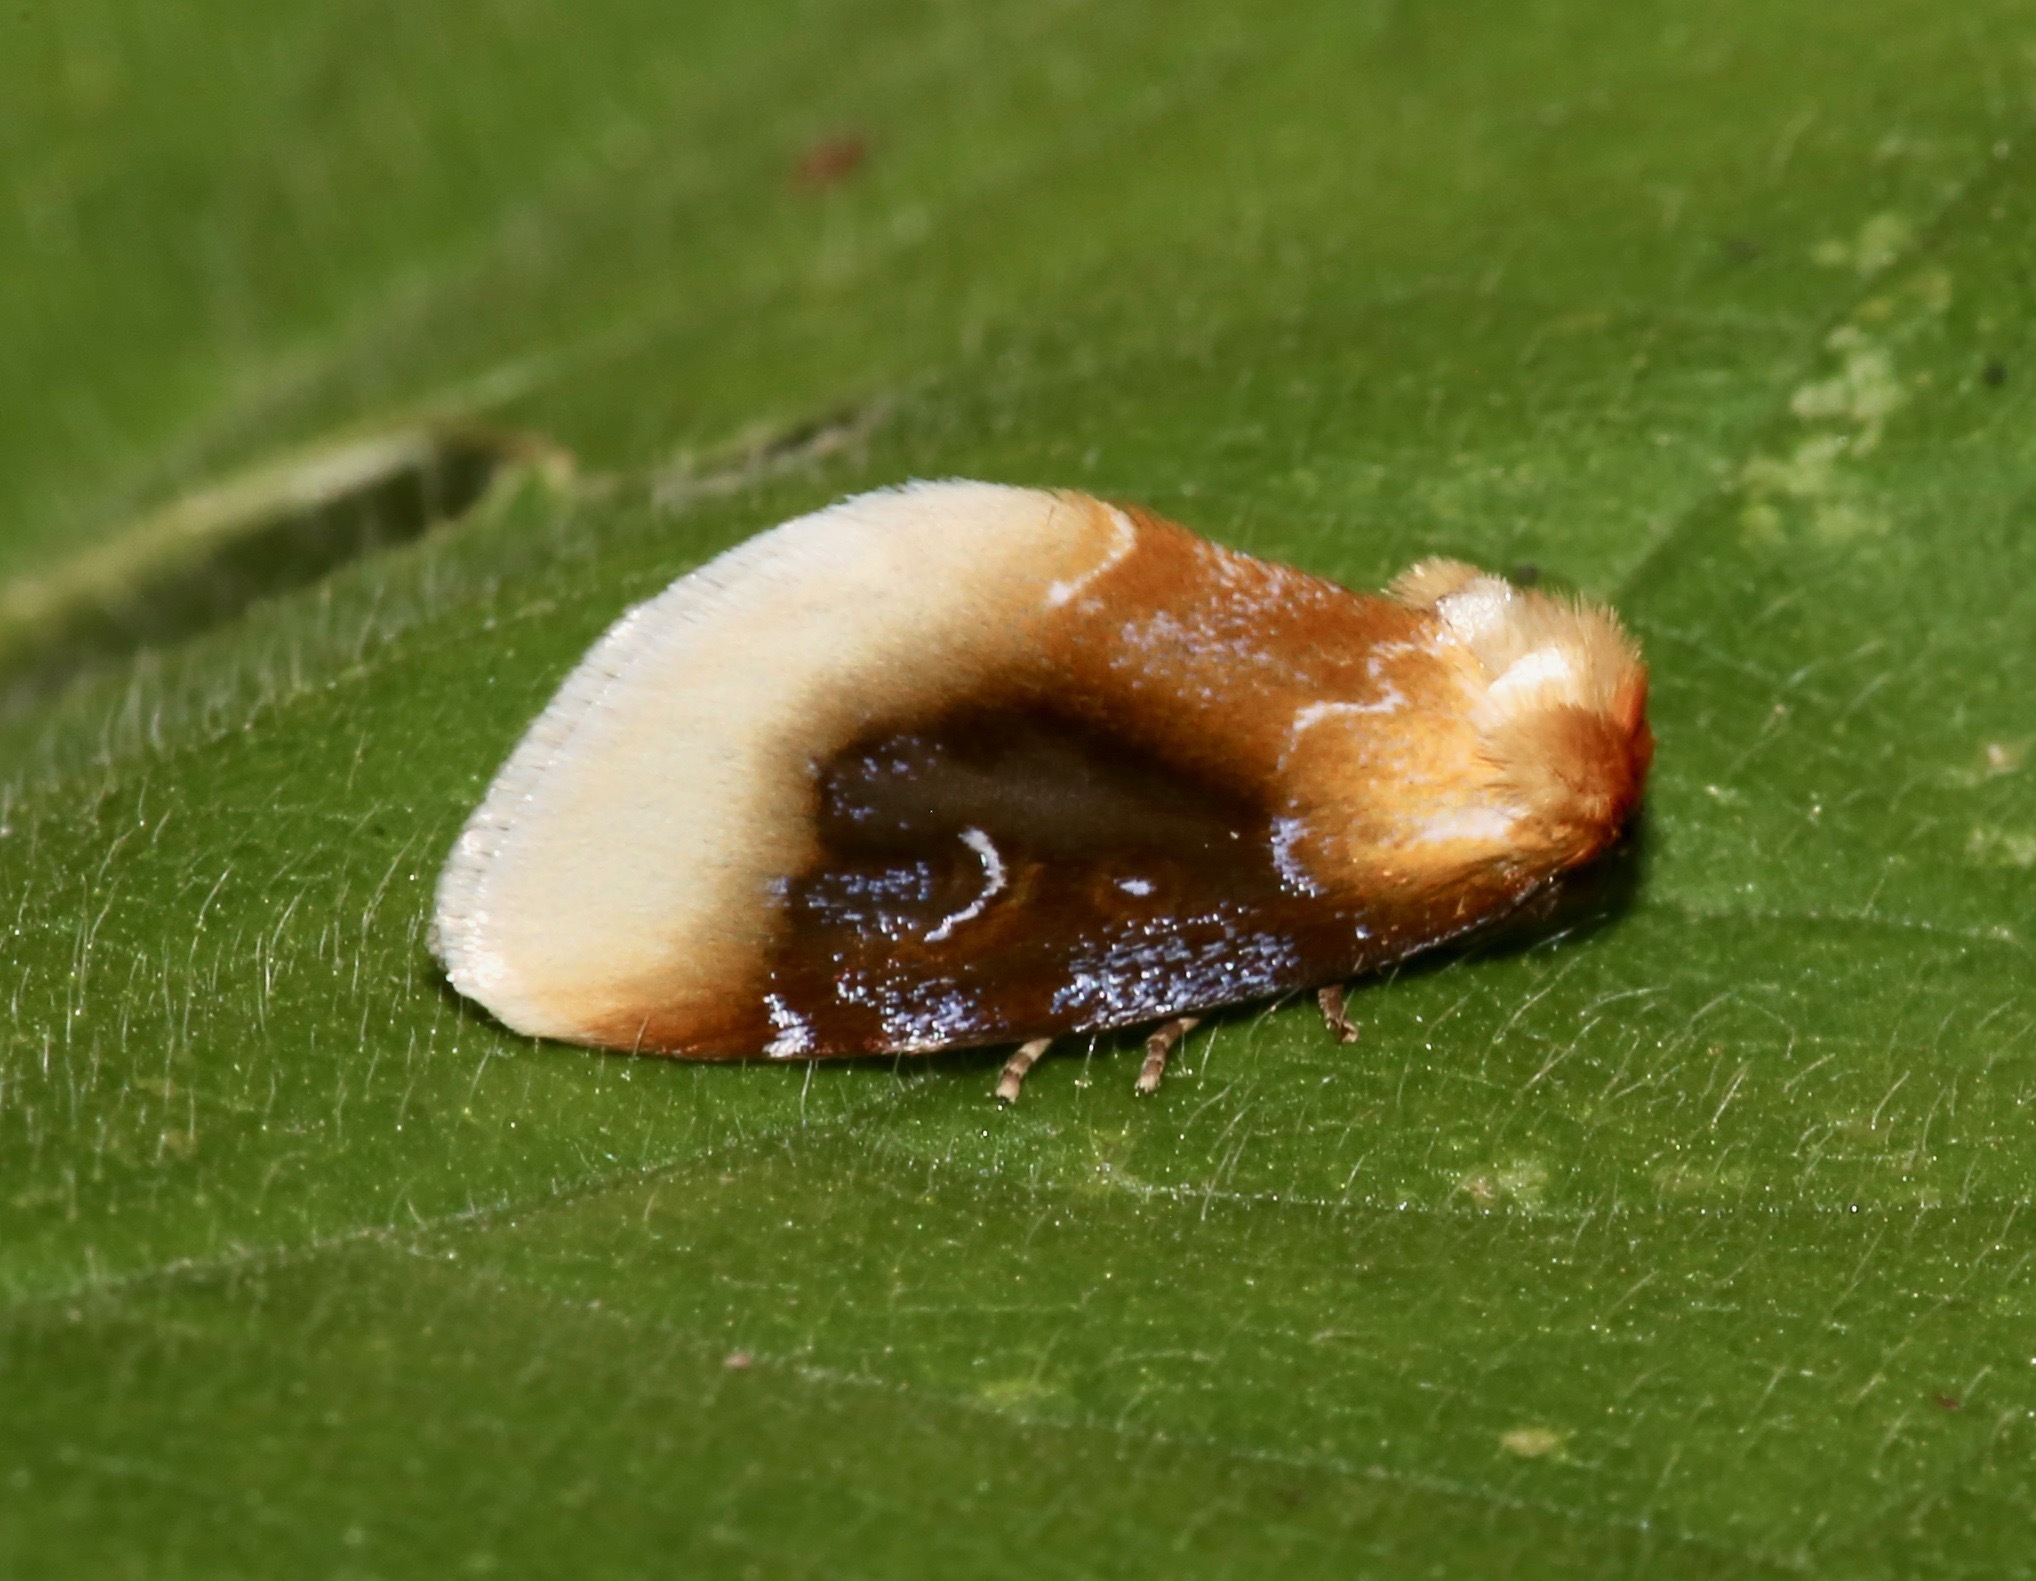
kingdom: Animalia
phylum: Arthropoda
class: Insecta
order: Lepidoptera
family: Noctuidae
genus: Chrysoecia
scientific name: Chrysoecia scira
